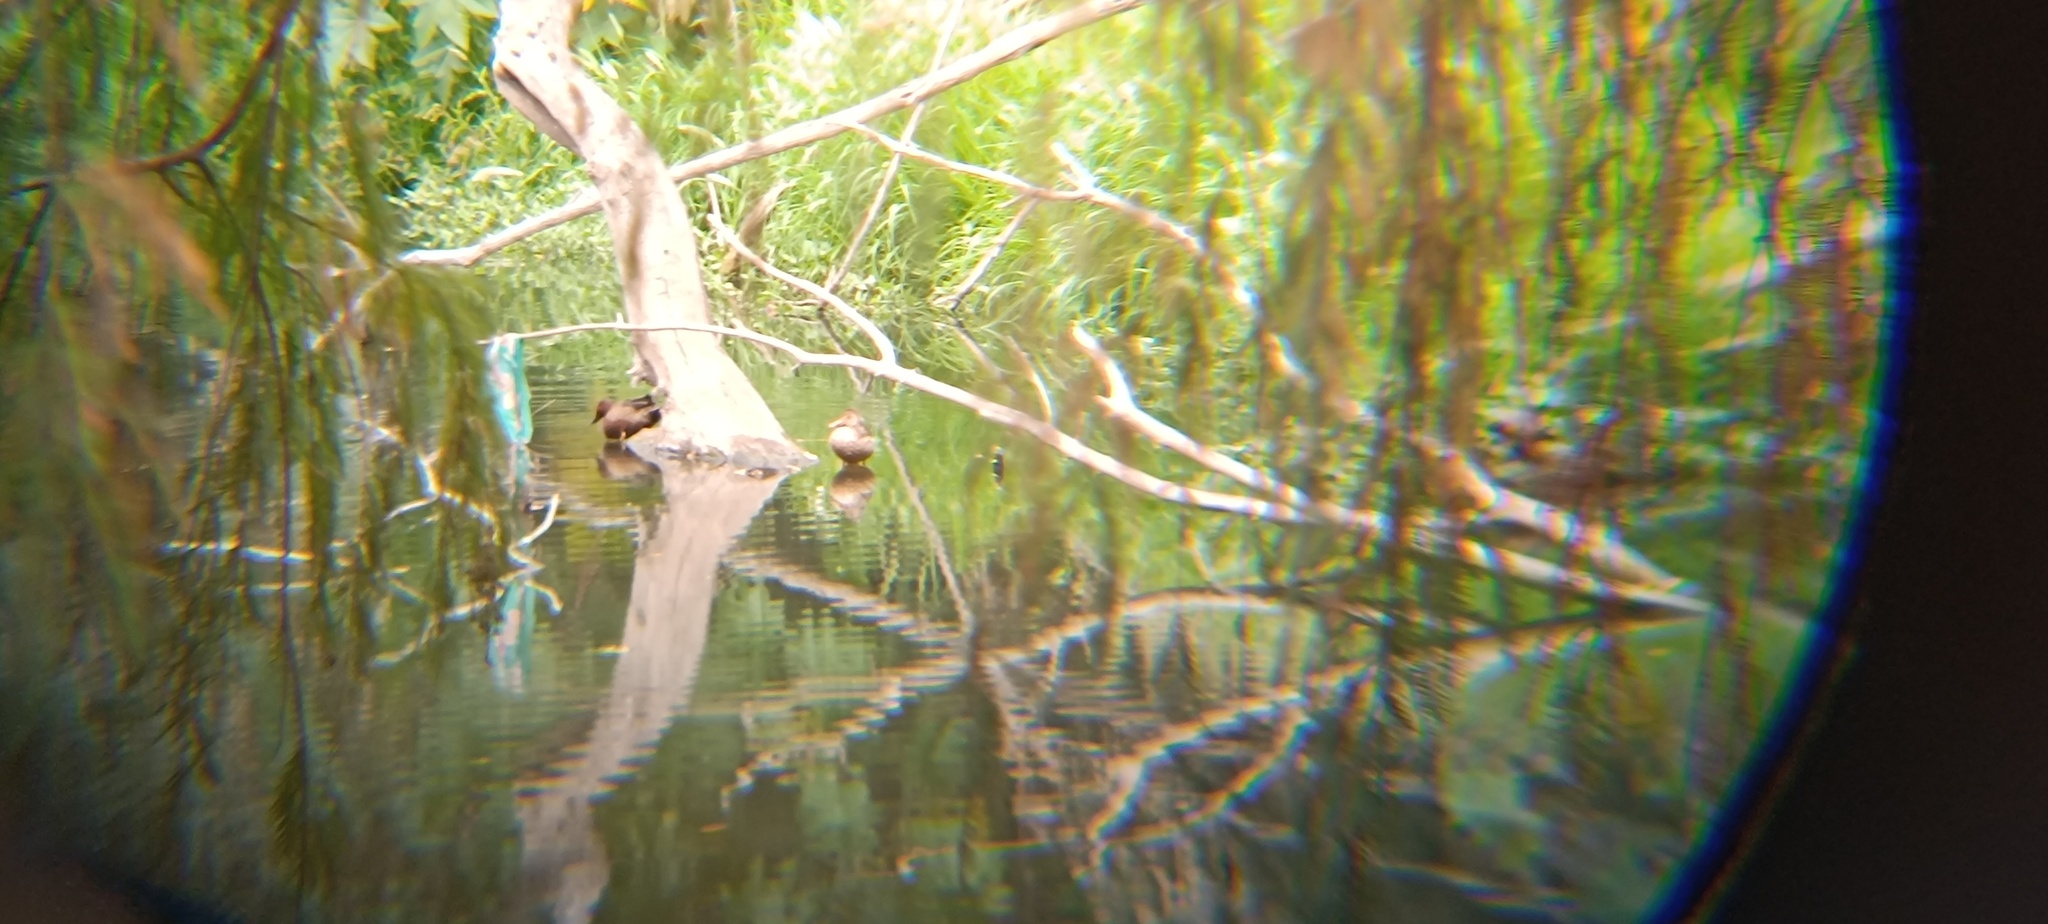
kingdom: Animalia
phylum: Chordata
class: Aves
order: Anseriformes
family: Anatidae
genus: Spatula
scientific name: Spatula cyanoptera
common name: Cinnamon teal
